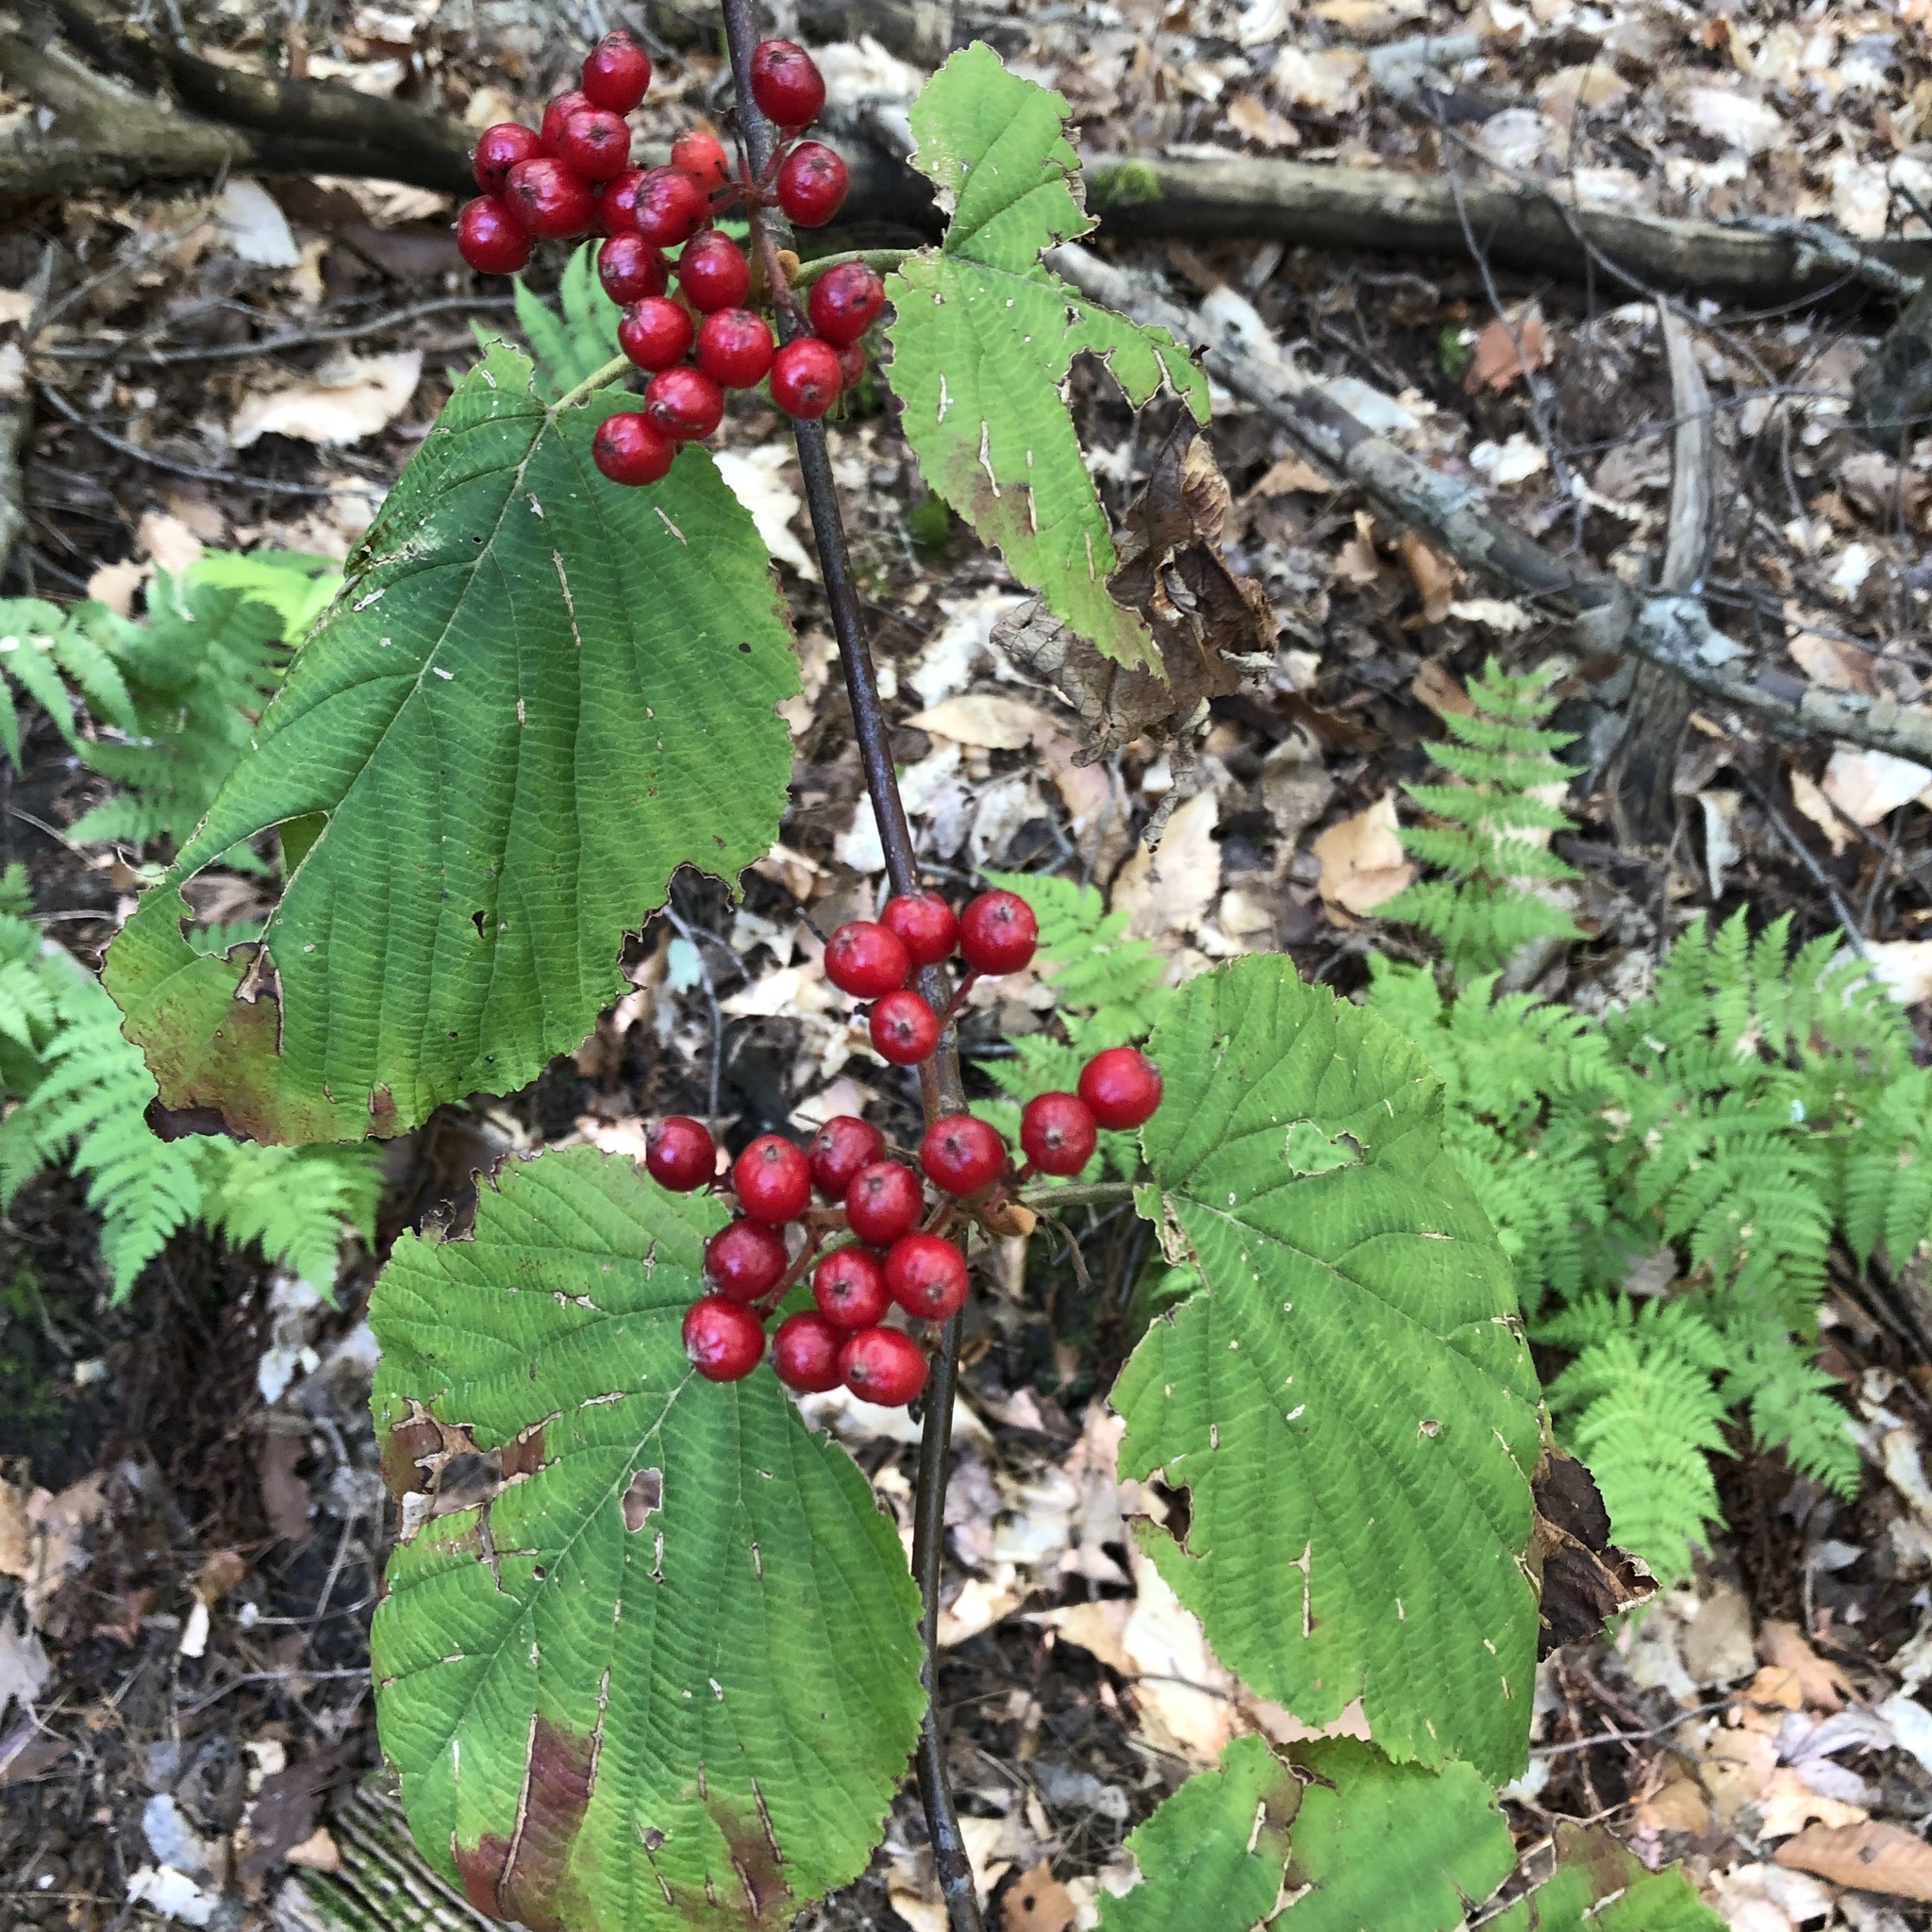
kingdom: Plantae
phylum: Tracheophyta
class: Magnoliopsida
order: Dipsacales
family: Viburnaceae
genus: Viburnum
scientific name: Viburnum lantanoides
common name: Hobblebush
